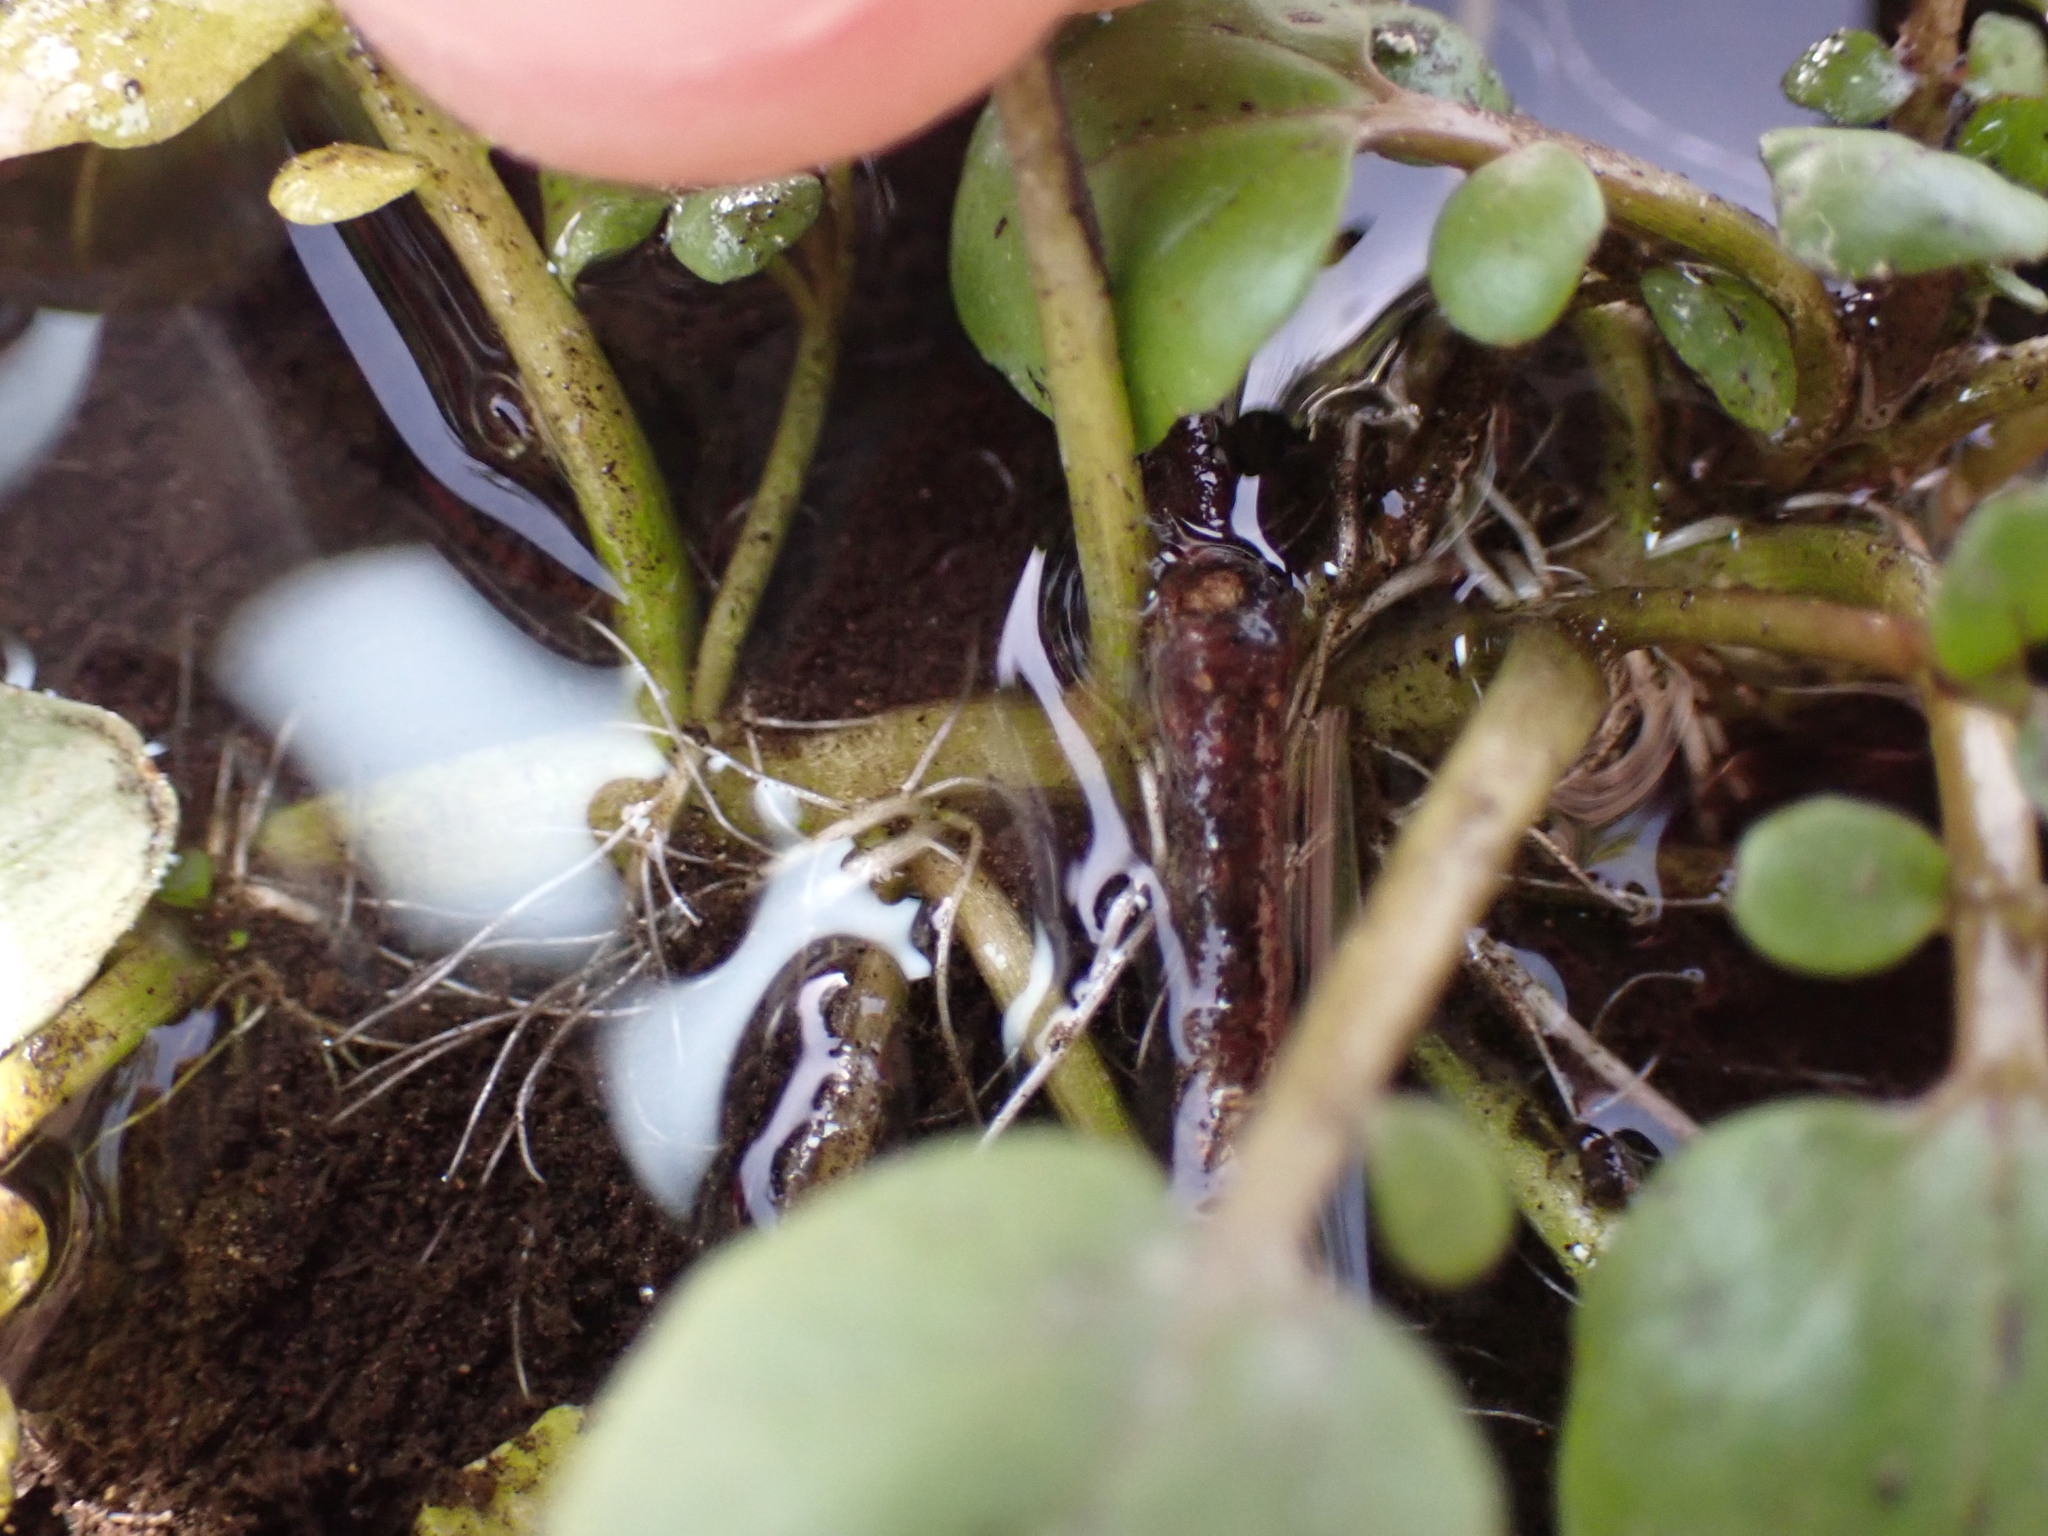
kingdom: Plantae
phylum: Tracheophyta
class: Magnoliopsida
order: Brassicales
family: Brassicaceae
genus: Nasturtium
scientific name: Nasturtium officinale
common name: Watercress
